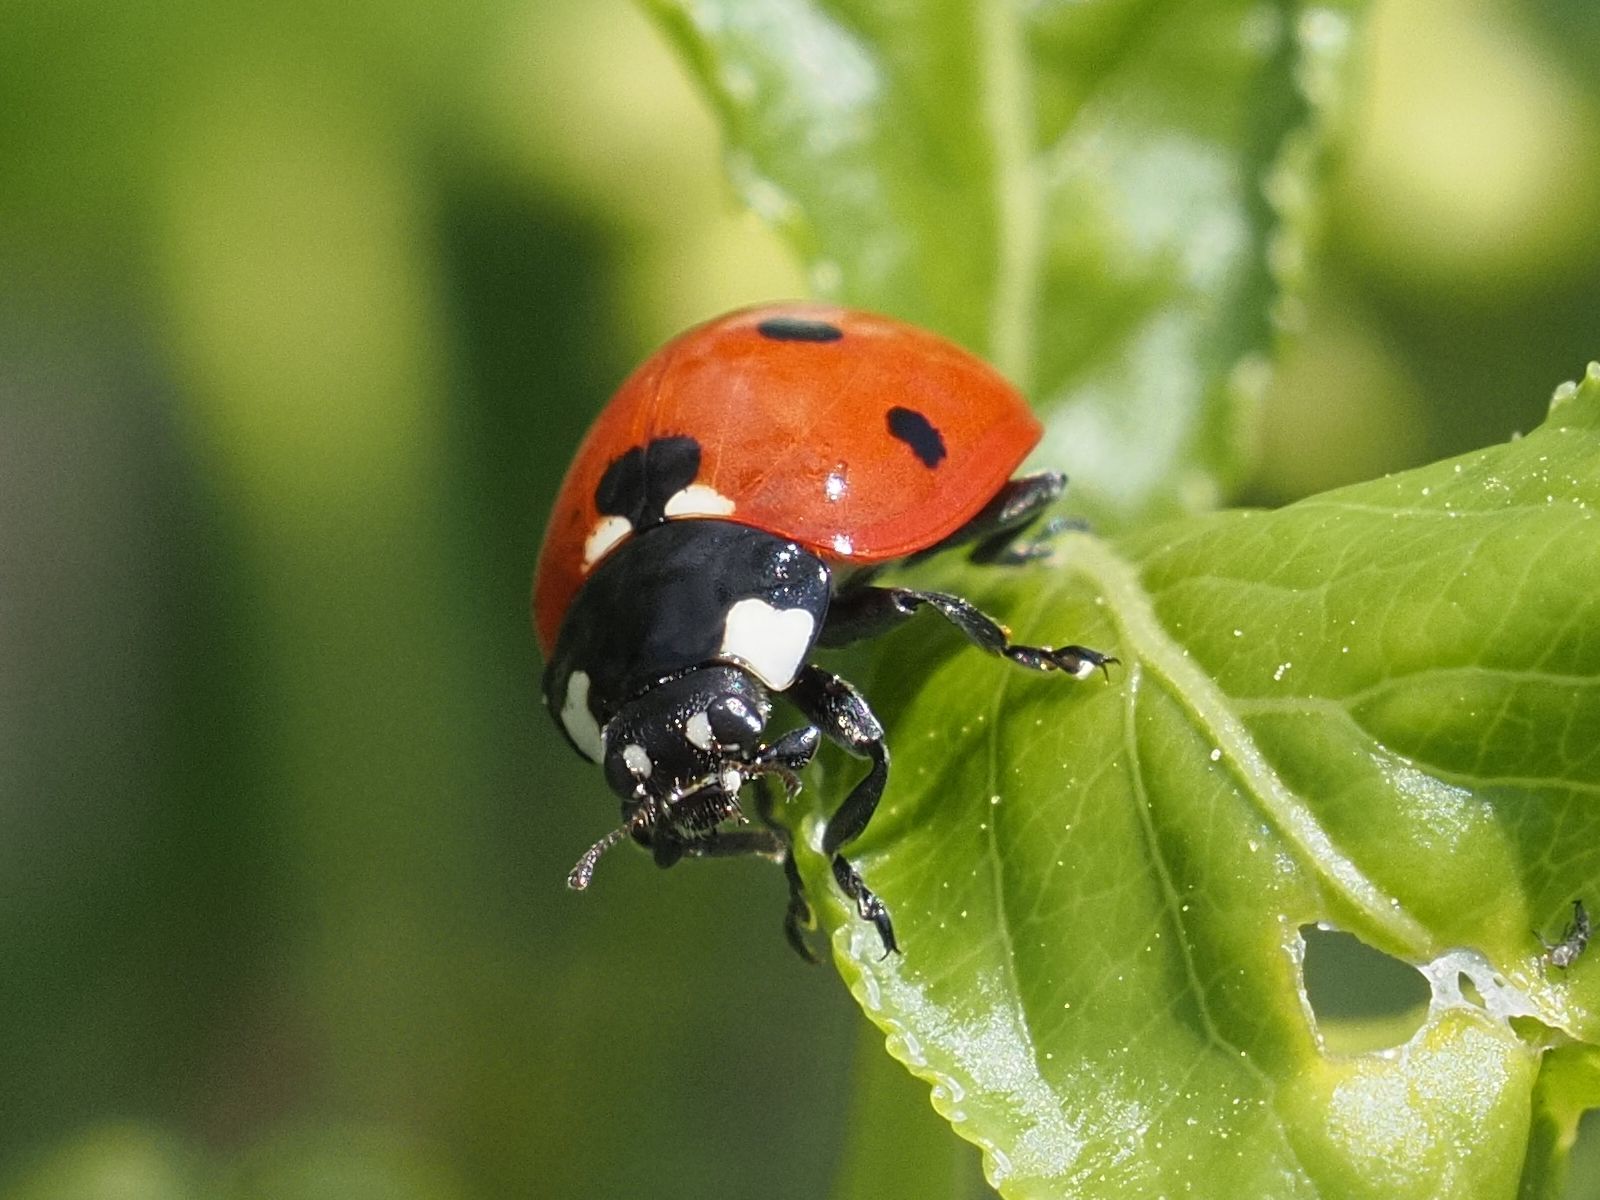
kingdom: Animalia
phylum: Arthropoda
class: Insecta
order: Coleoptera
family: Coccinellidae
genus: Coccinella
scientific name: Coccinella septempunctata
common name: Sevenspotted lady beetle
